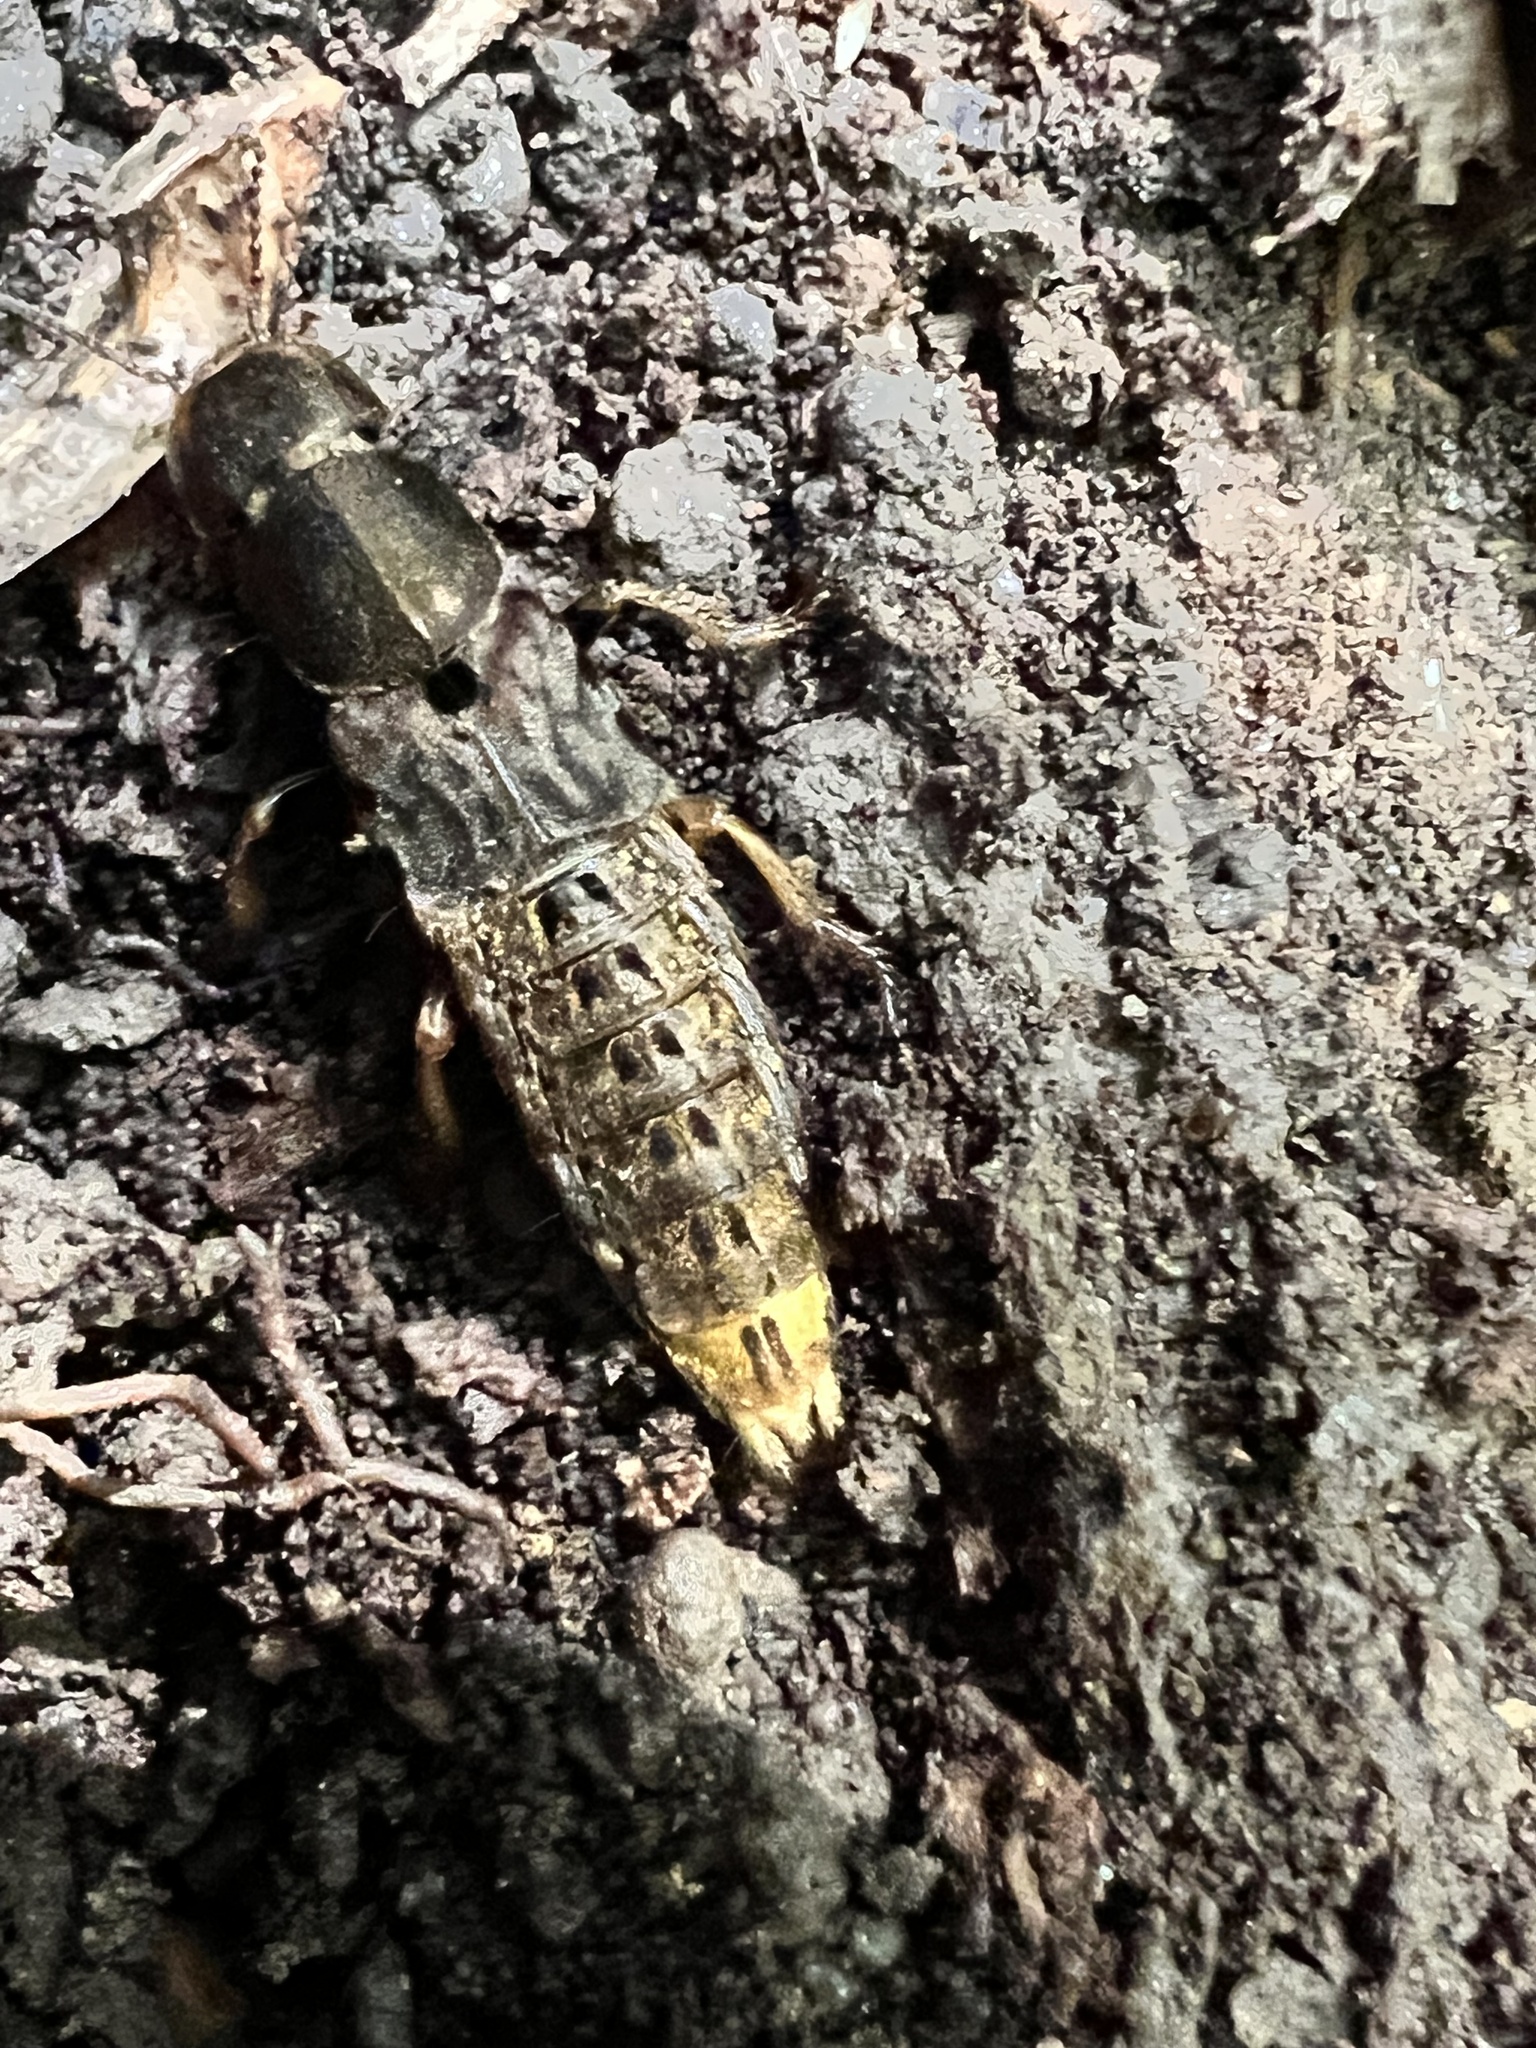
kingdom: Animalia
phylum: Arthropoda
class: Insecta
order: Coleoptera
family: Staphylinidae
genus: Platydracus
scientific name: Platydracus maculosus
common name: Brown rove beetle
